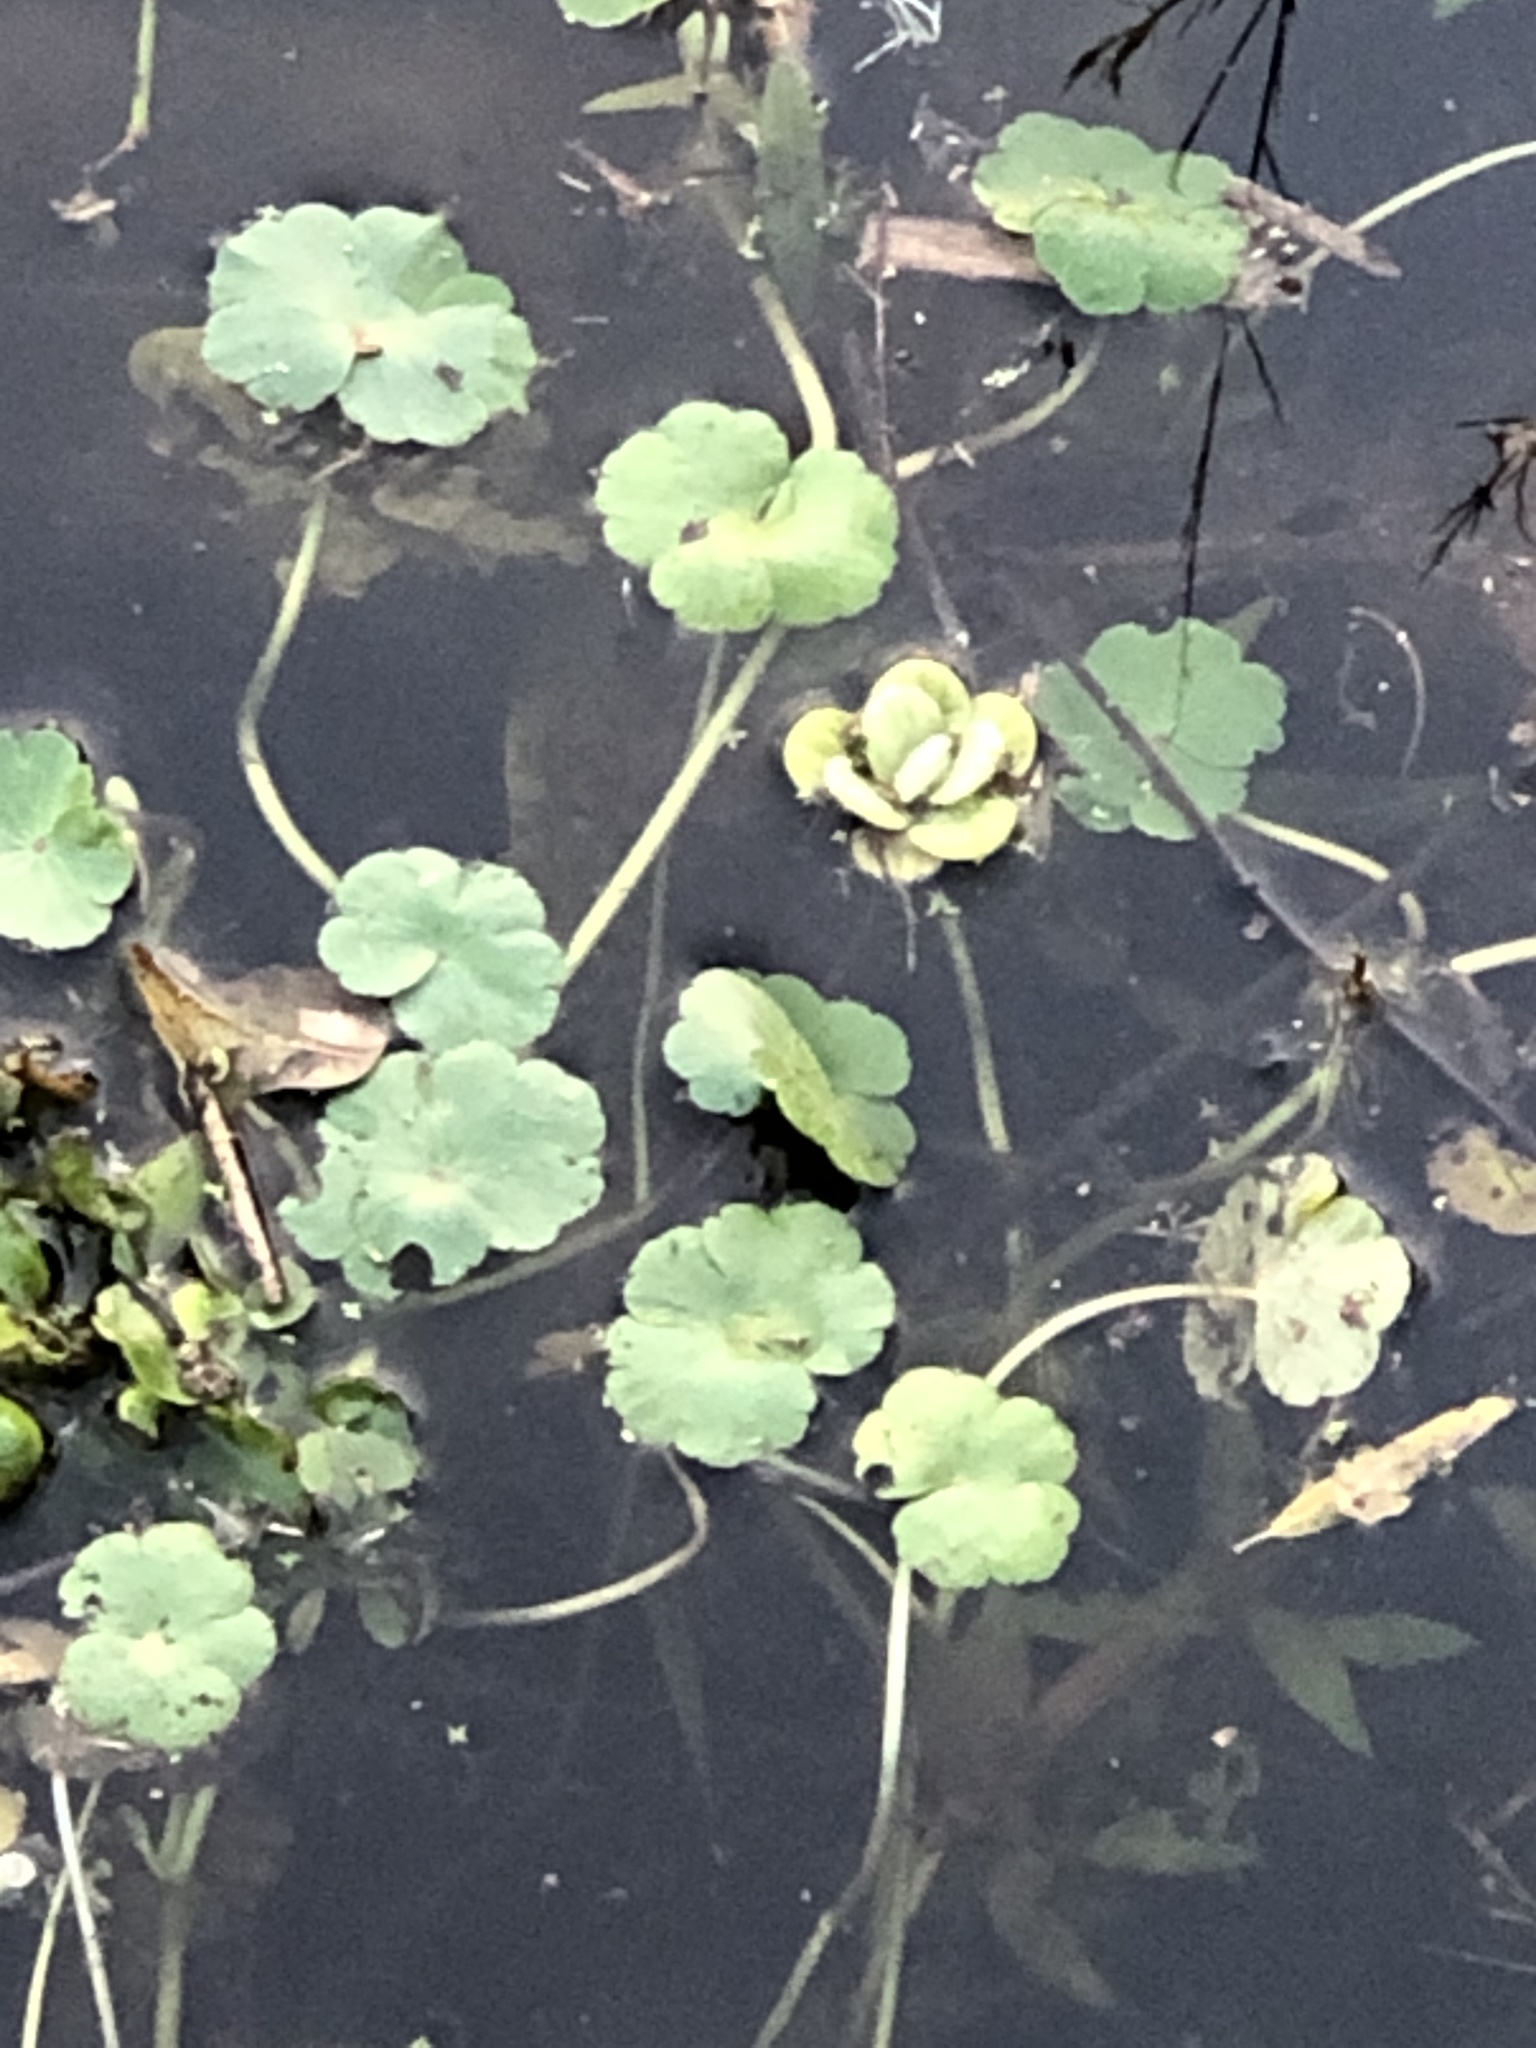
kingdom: Plantae
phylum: Tracheophyta
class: Magnoliopsida
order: Apiales
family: Araliaceae
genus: Hydrocotyle
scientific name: Hydrocotyle ranunculoides
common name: Floating pennywort
